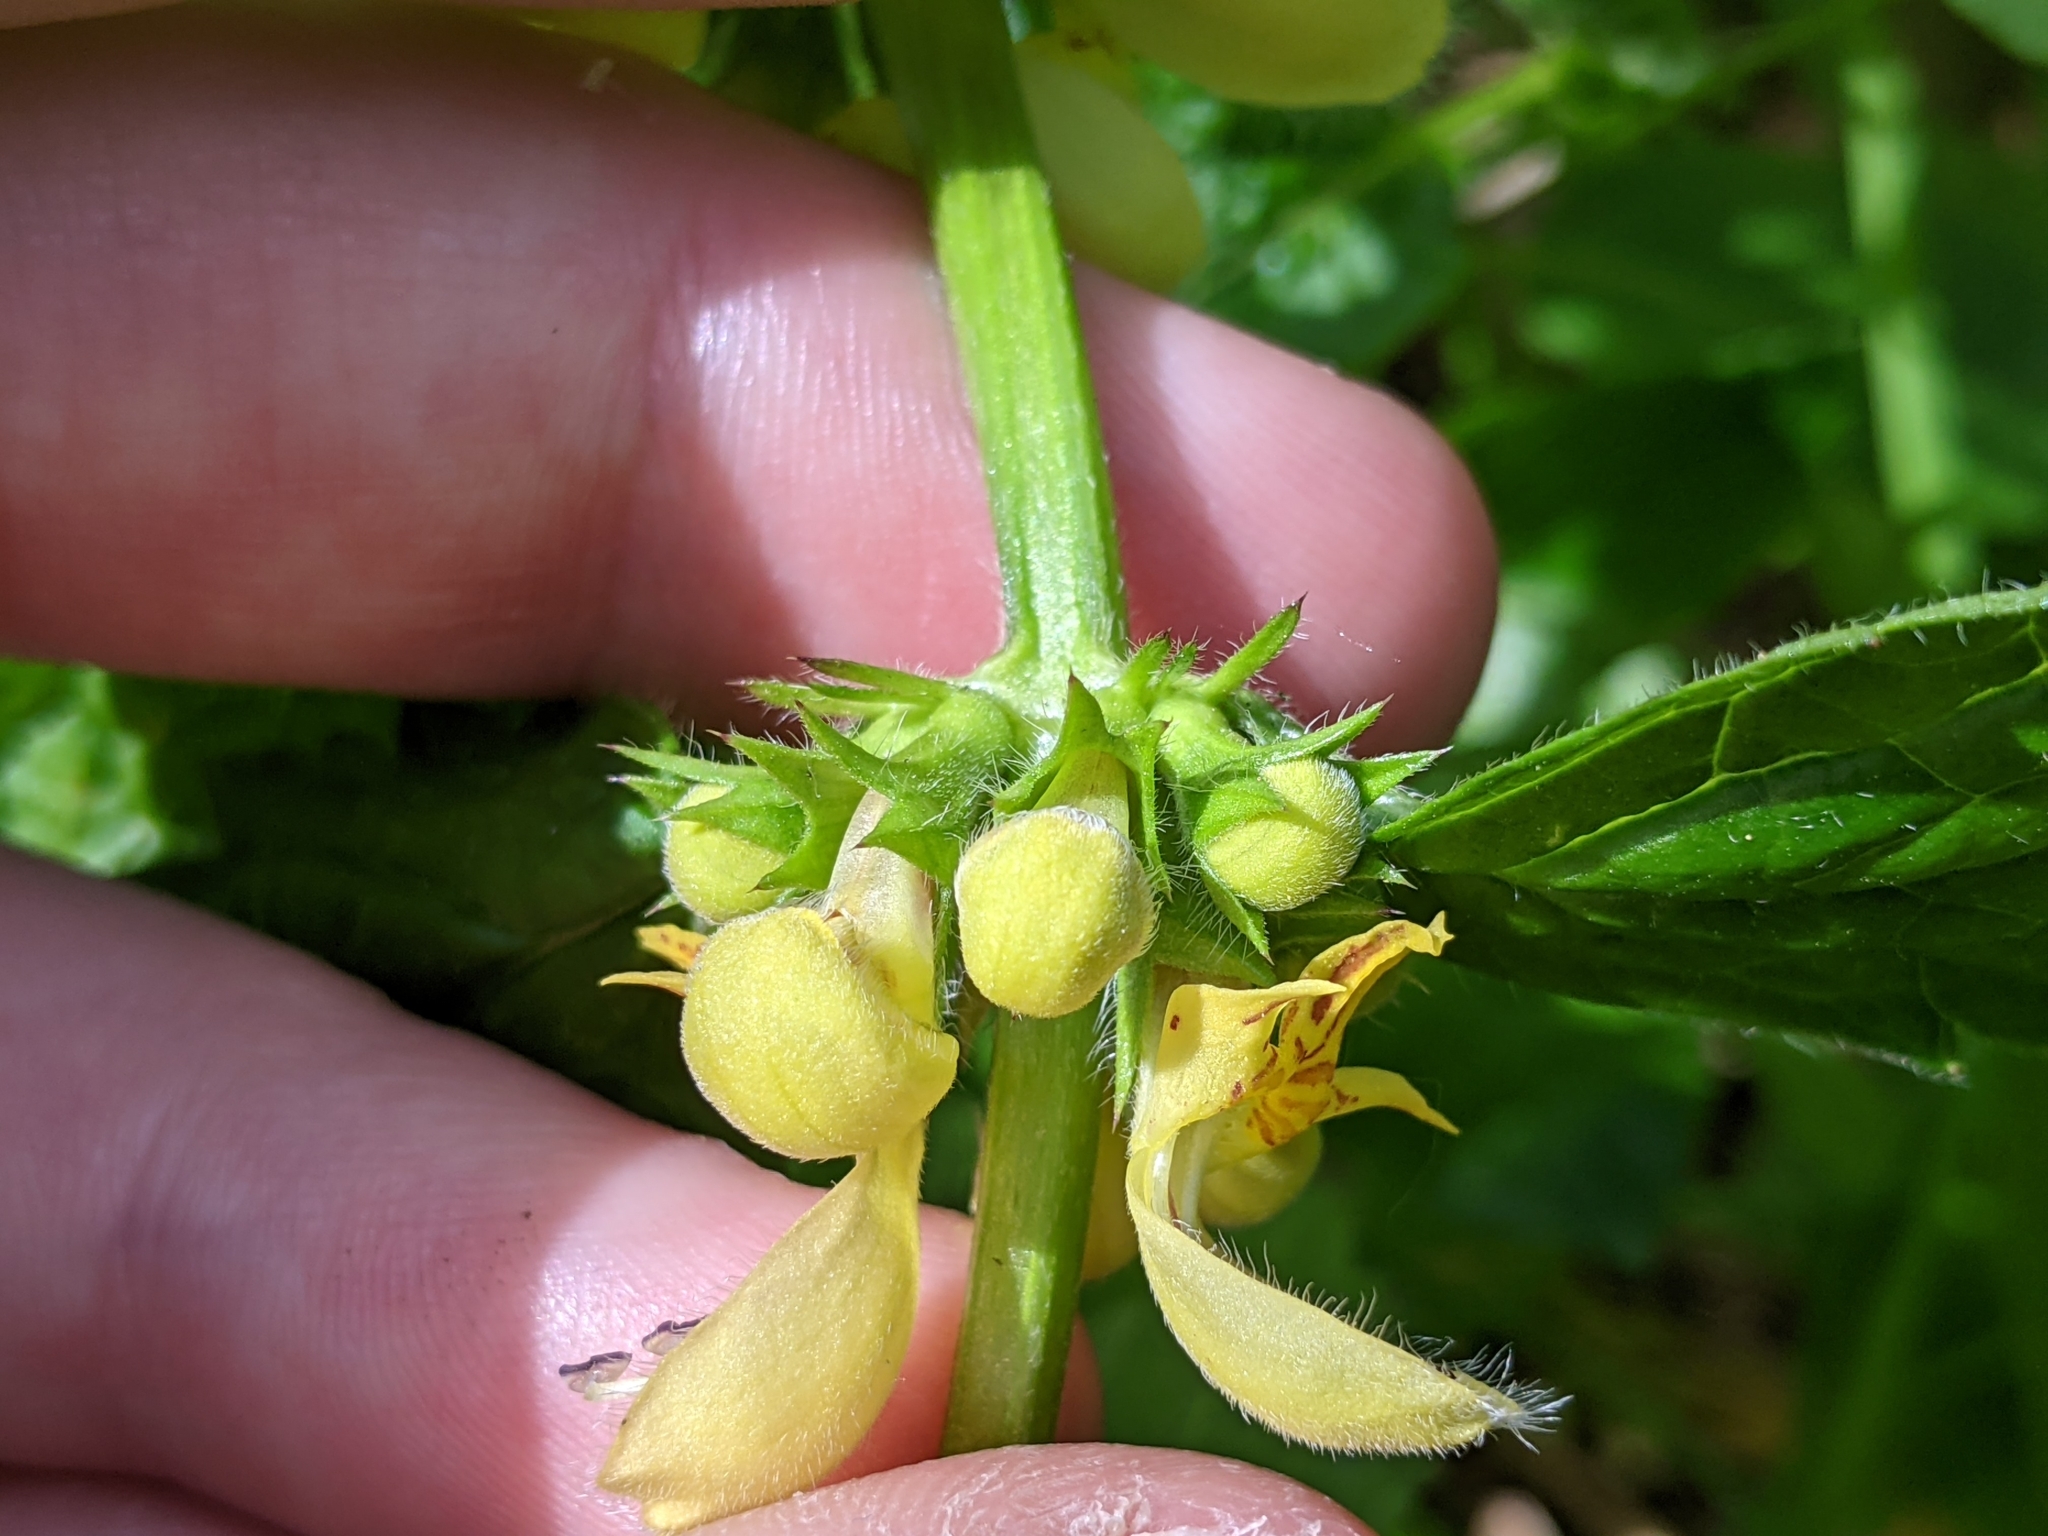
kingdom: Plantae
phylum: Tracheophyta
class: Magnoliopsida
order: Lamiales
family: Lamiaceae
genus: Lamium
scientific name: Lamium galeobdolon
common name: Yellow archangel
